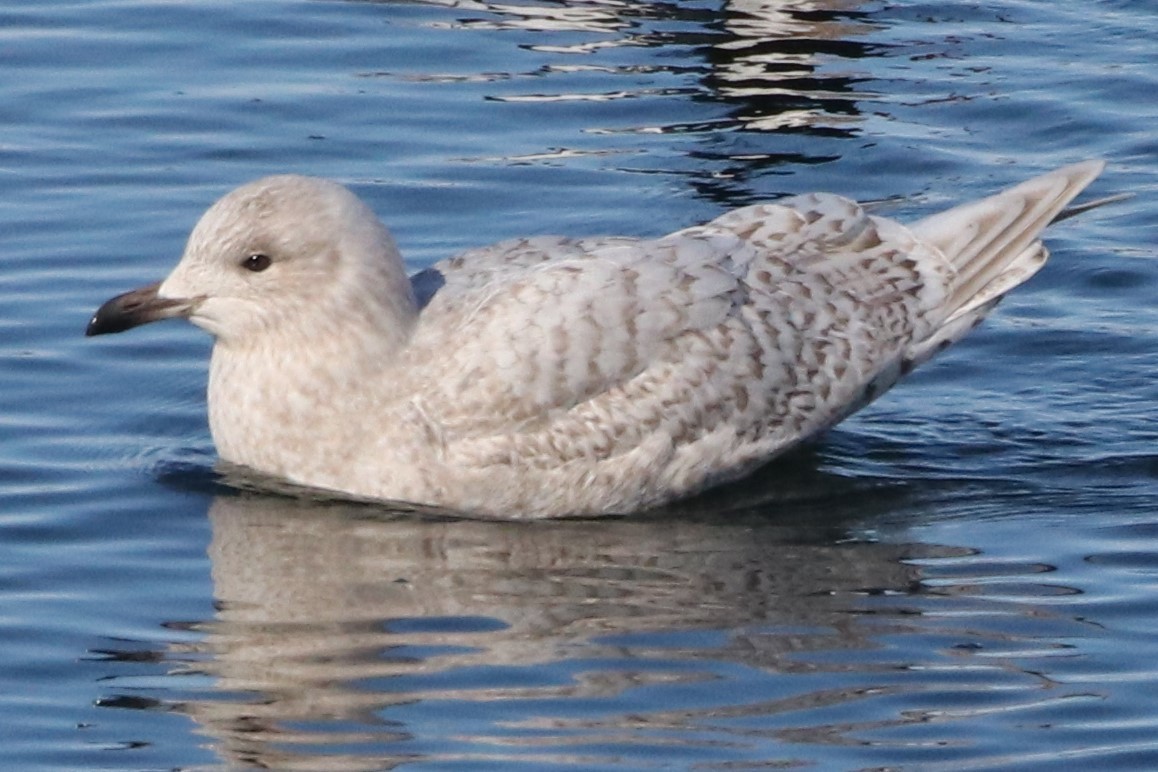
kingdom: Animalia
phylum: Chordata
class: Aves
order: Charadriiformes
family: Laridae
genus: Larus
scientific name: Larus glaucoides
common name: Iceland gull
